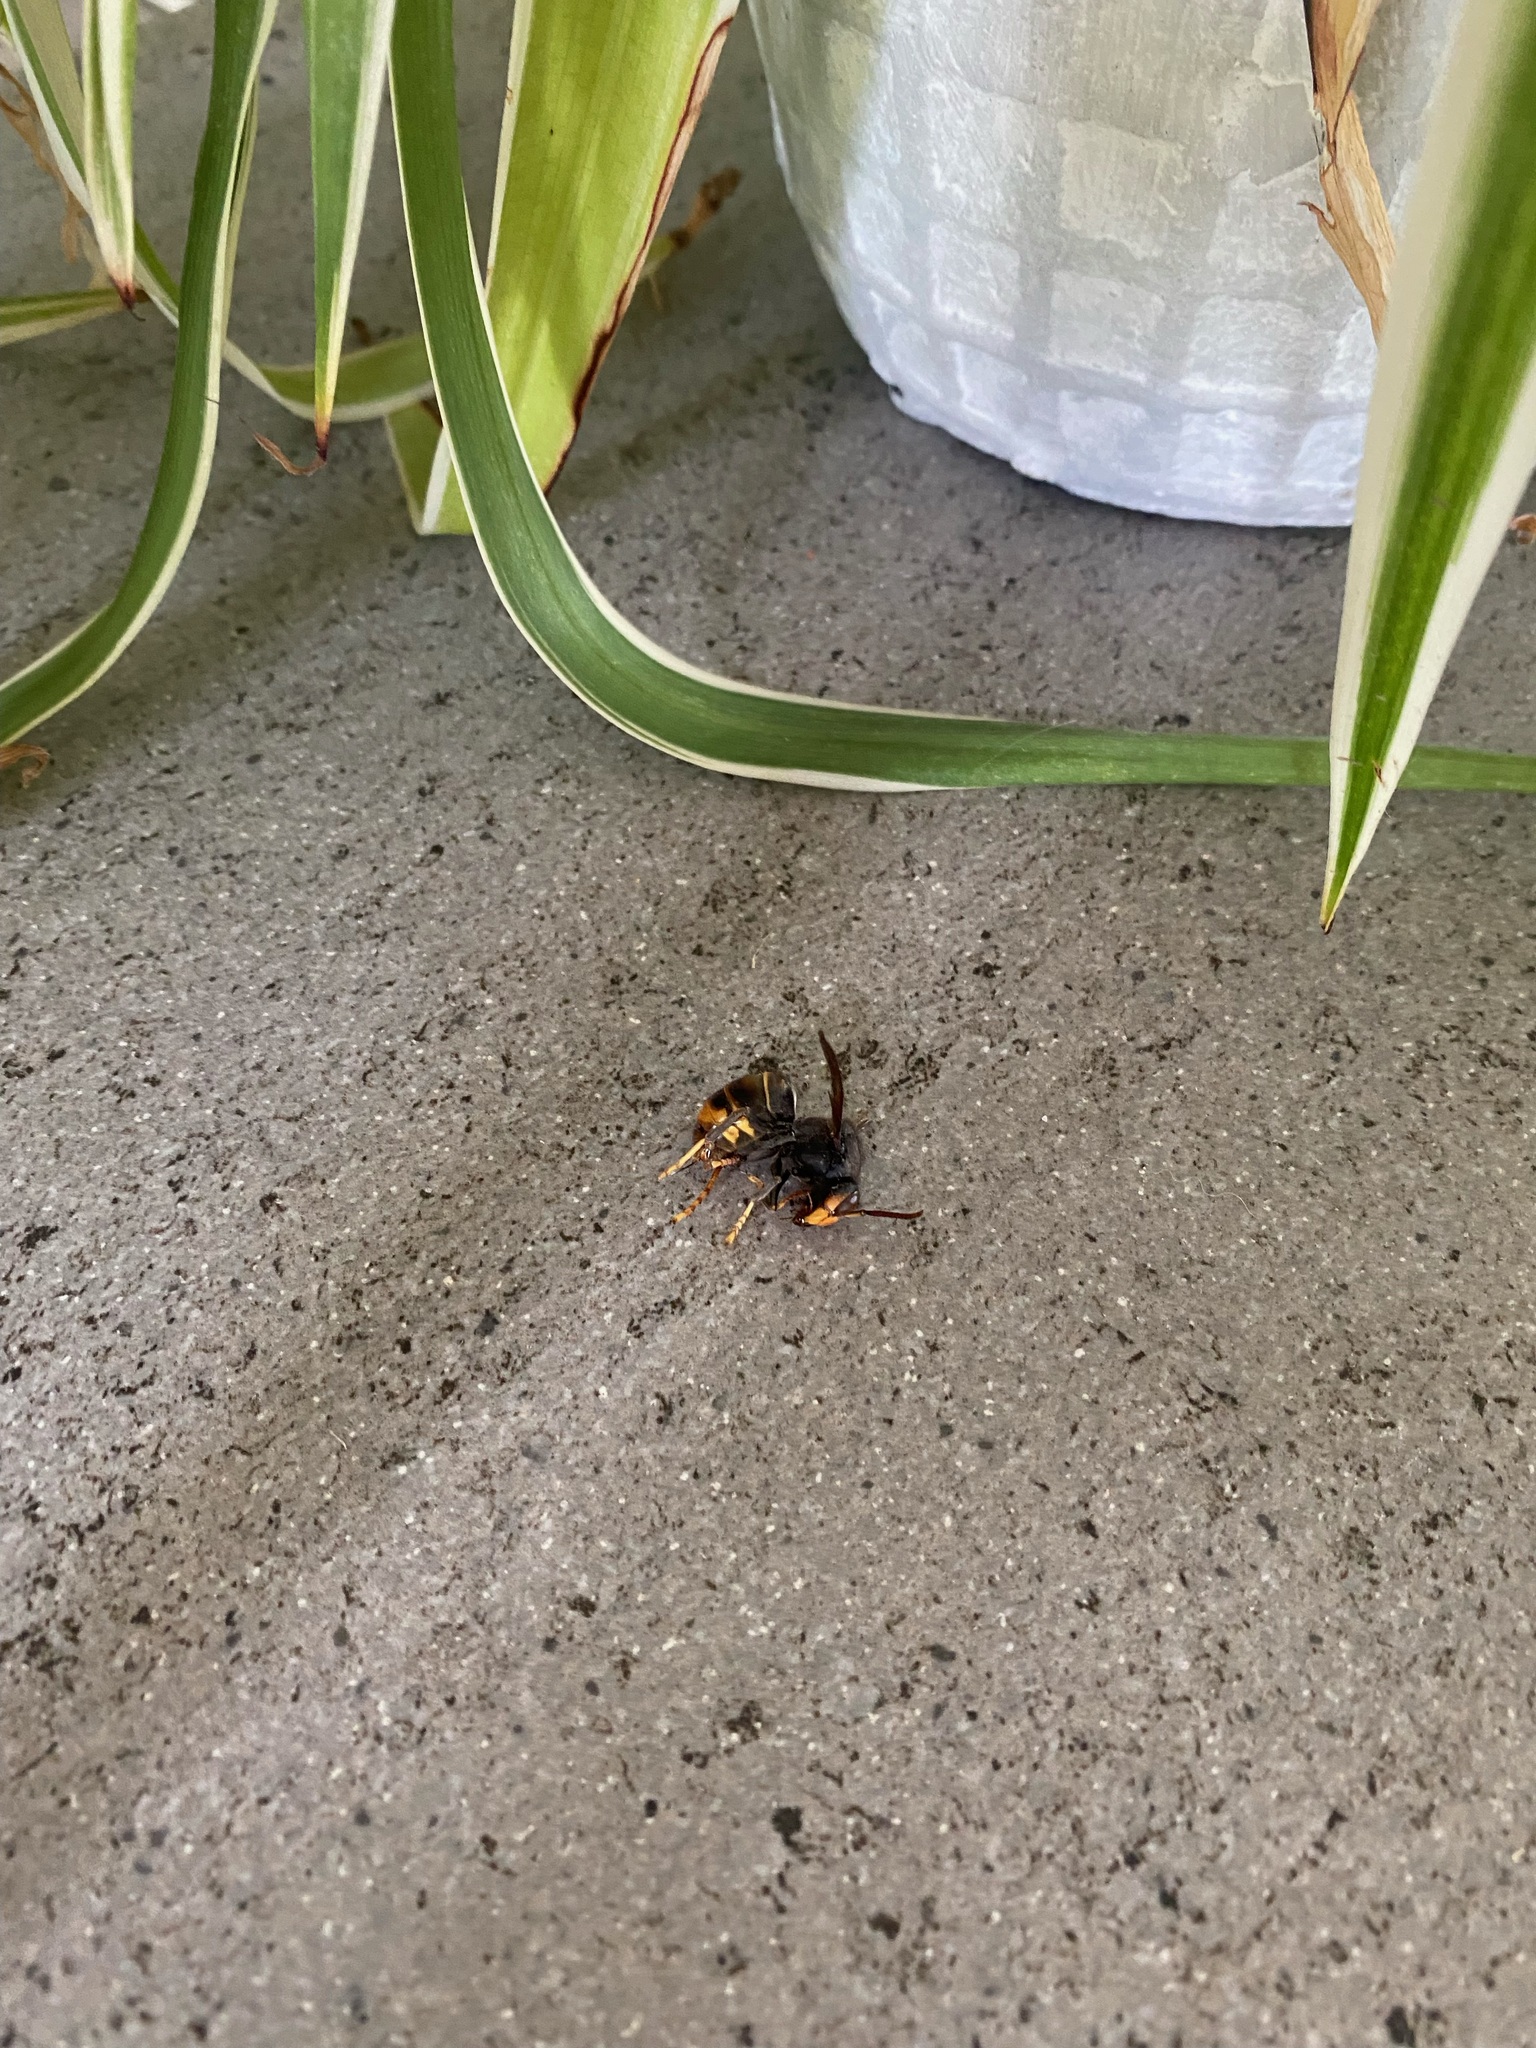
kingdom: Animalia
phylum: Arthropoda
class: Insecta
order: Hymenoptera
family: Vespidae
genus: Vespa
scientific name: Vespa velutina
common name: Asian hornet
